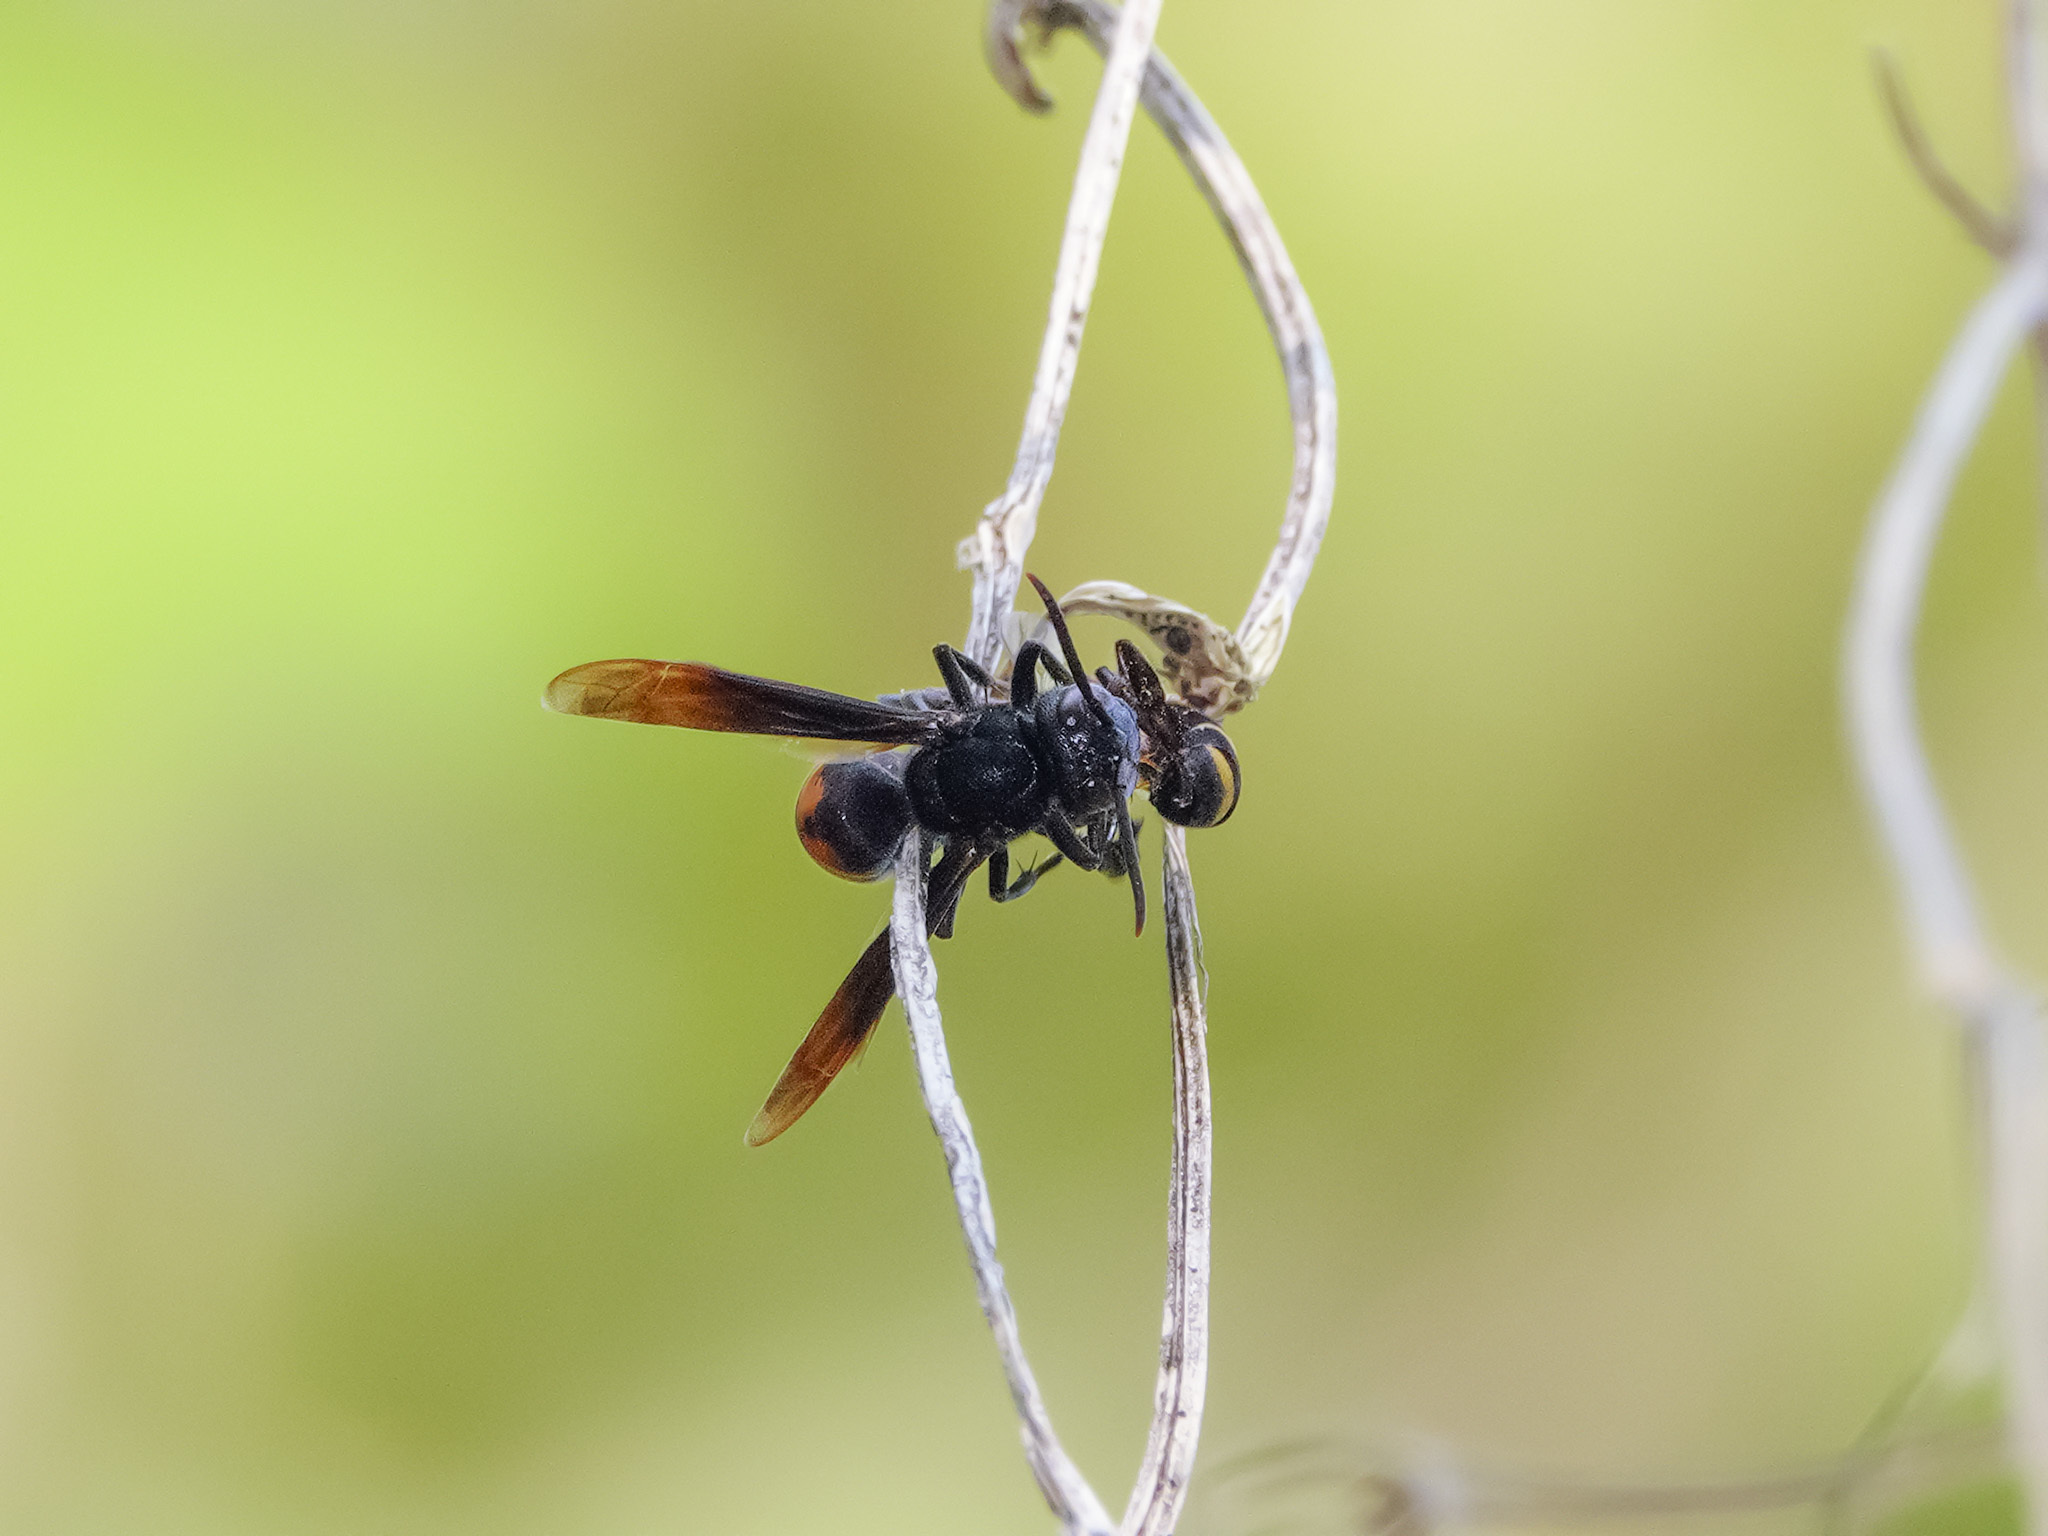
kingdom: Animalia
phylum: Arthropoda
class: Insecta
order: Hymenoptera
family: Vespidae
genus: Vespa
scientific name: Vespa affinis
